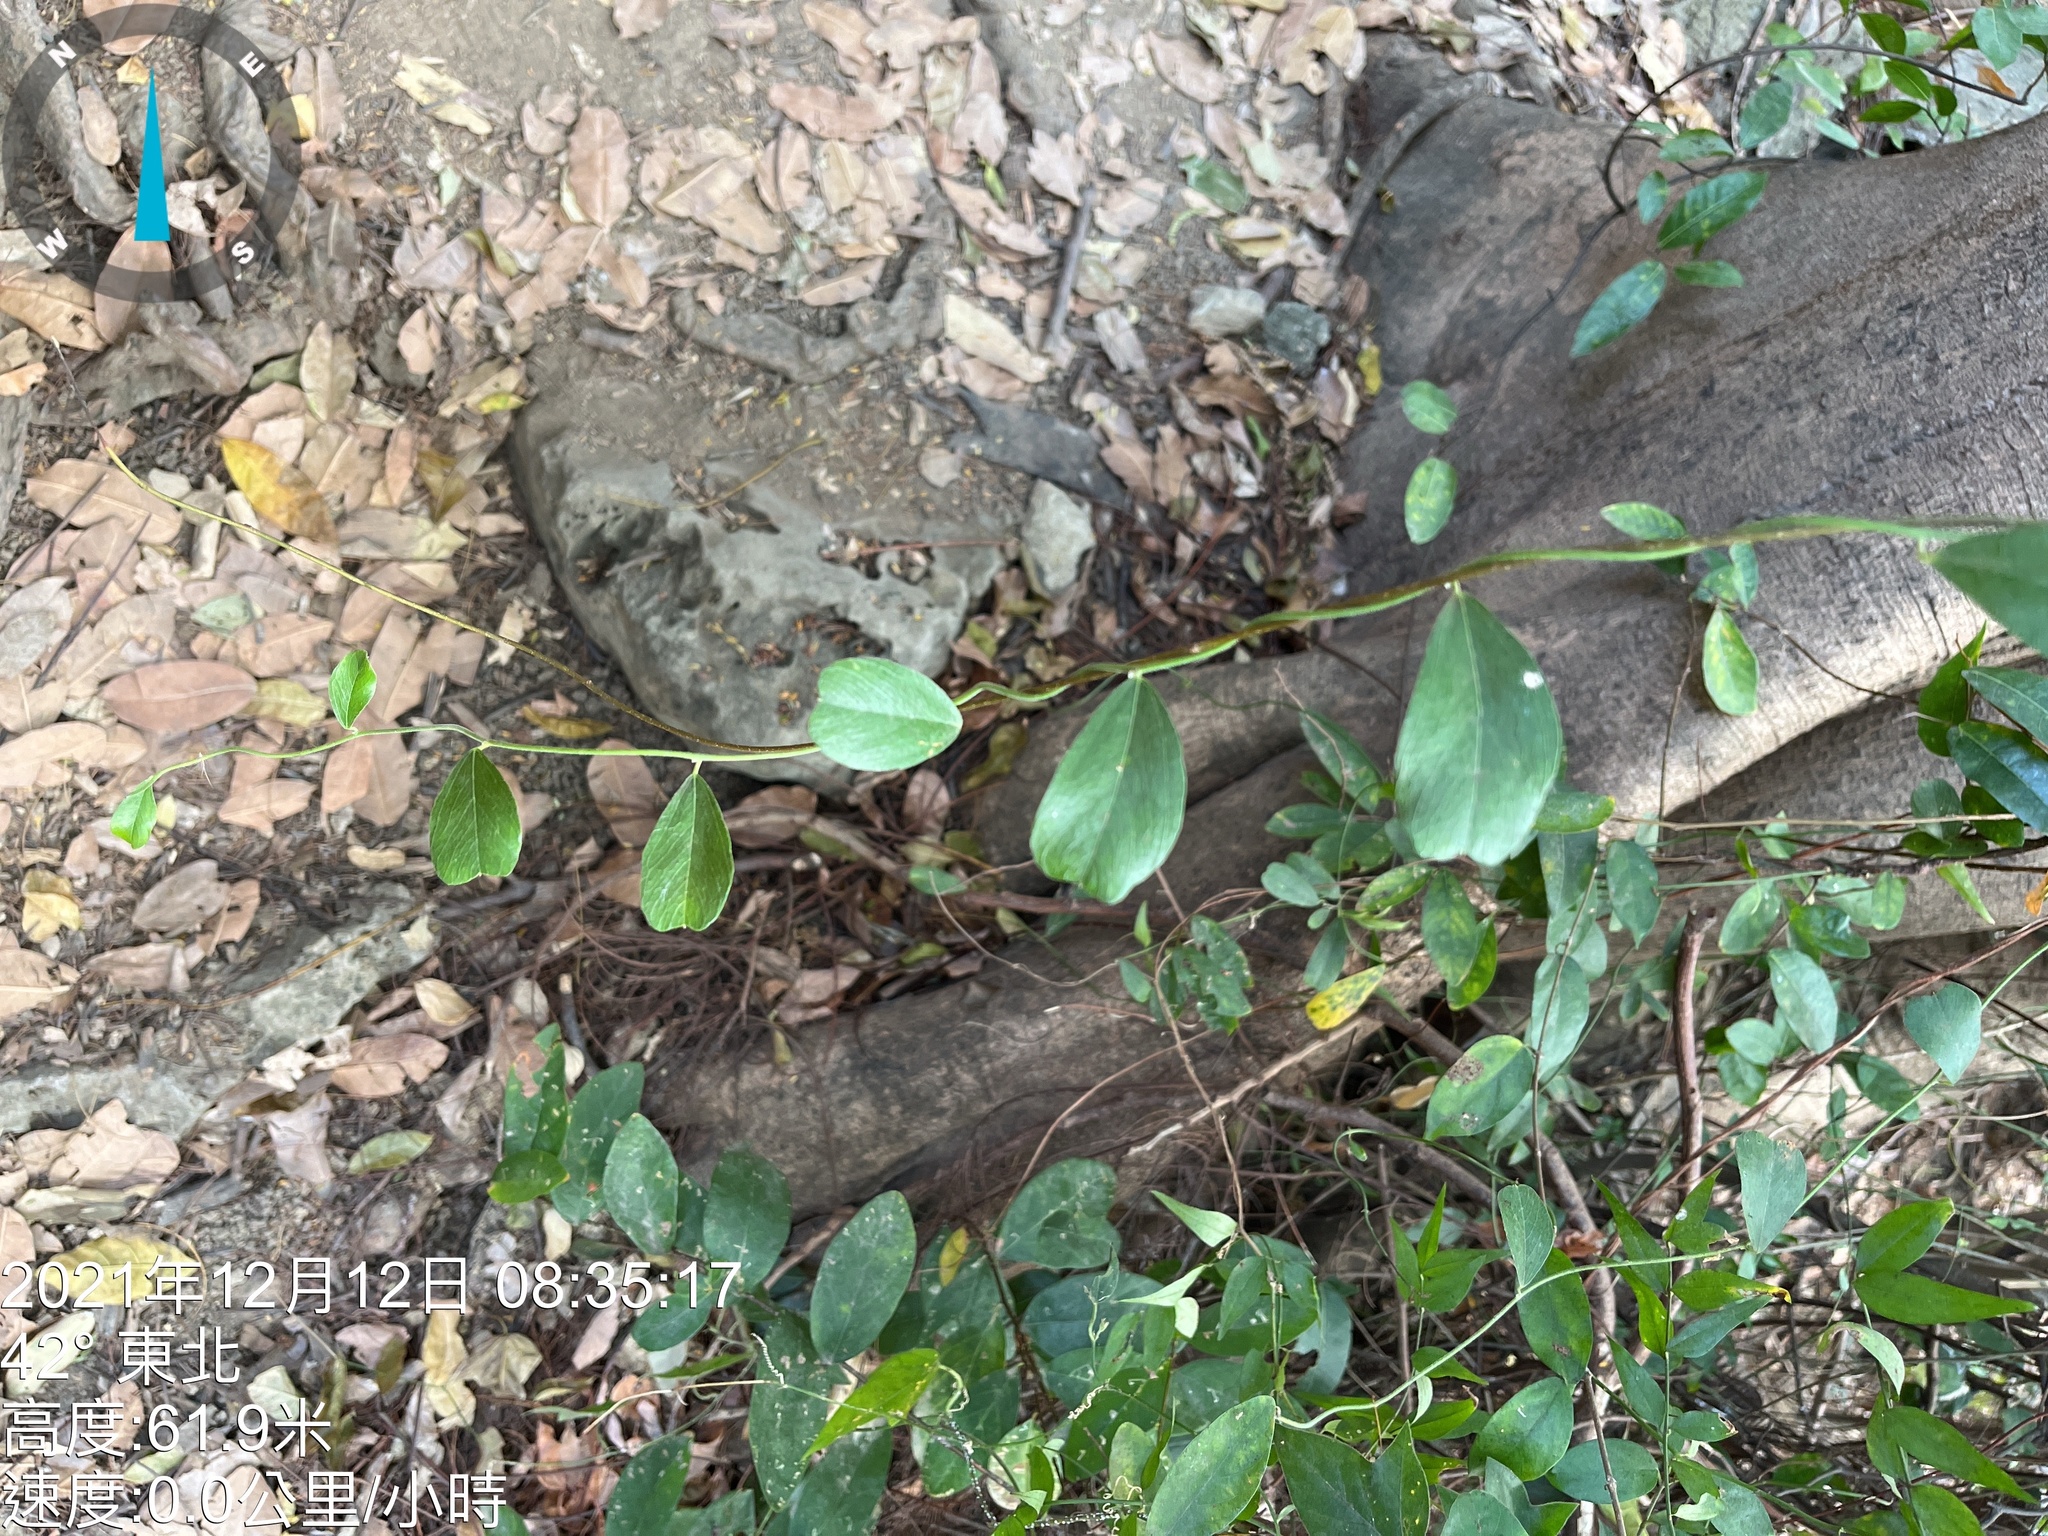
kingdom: Plantae
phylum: Tracheophyta
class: Magnoliopsida
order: Ranunculales
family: Menispermaceae
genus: Cocculus
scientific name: Cocculus orbiculatus
